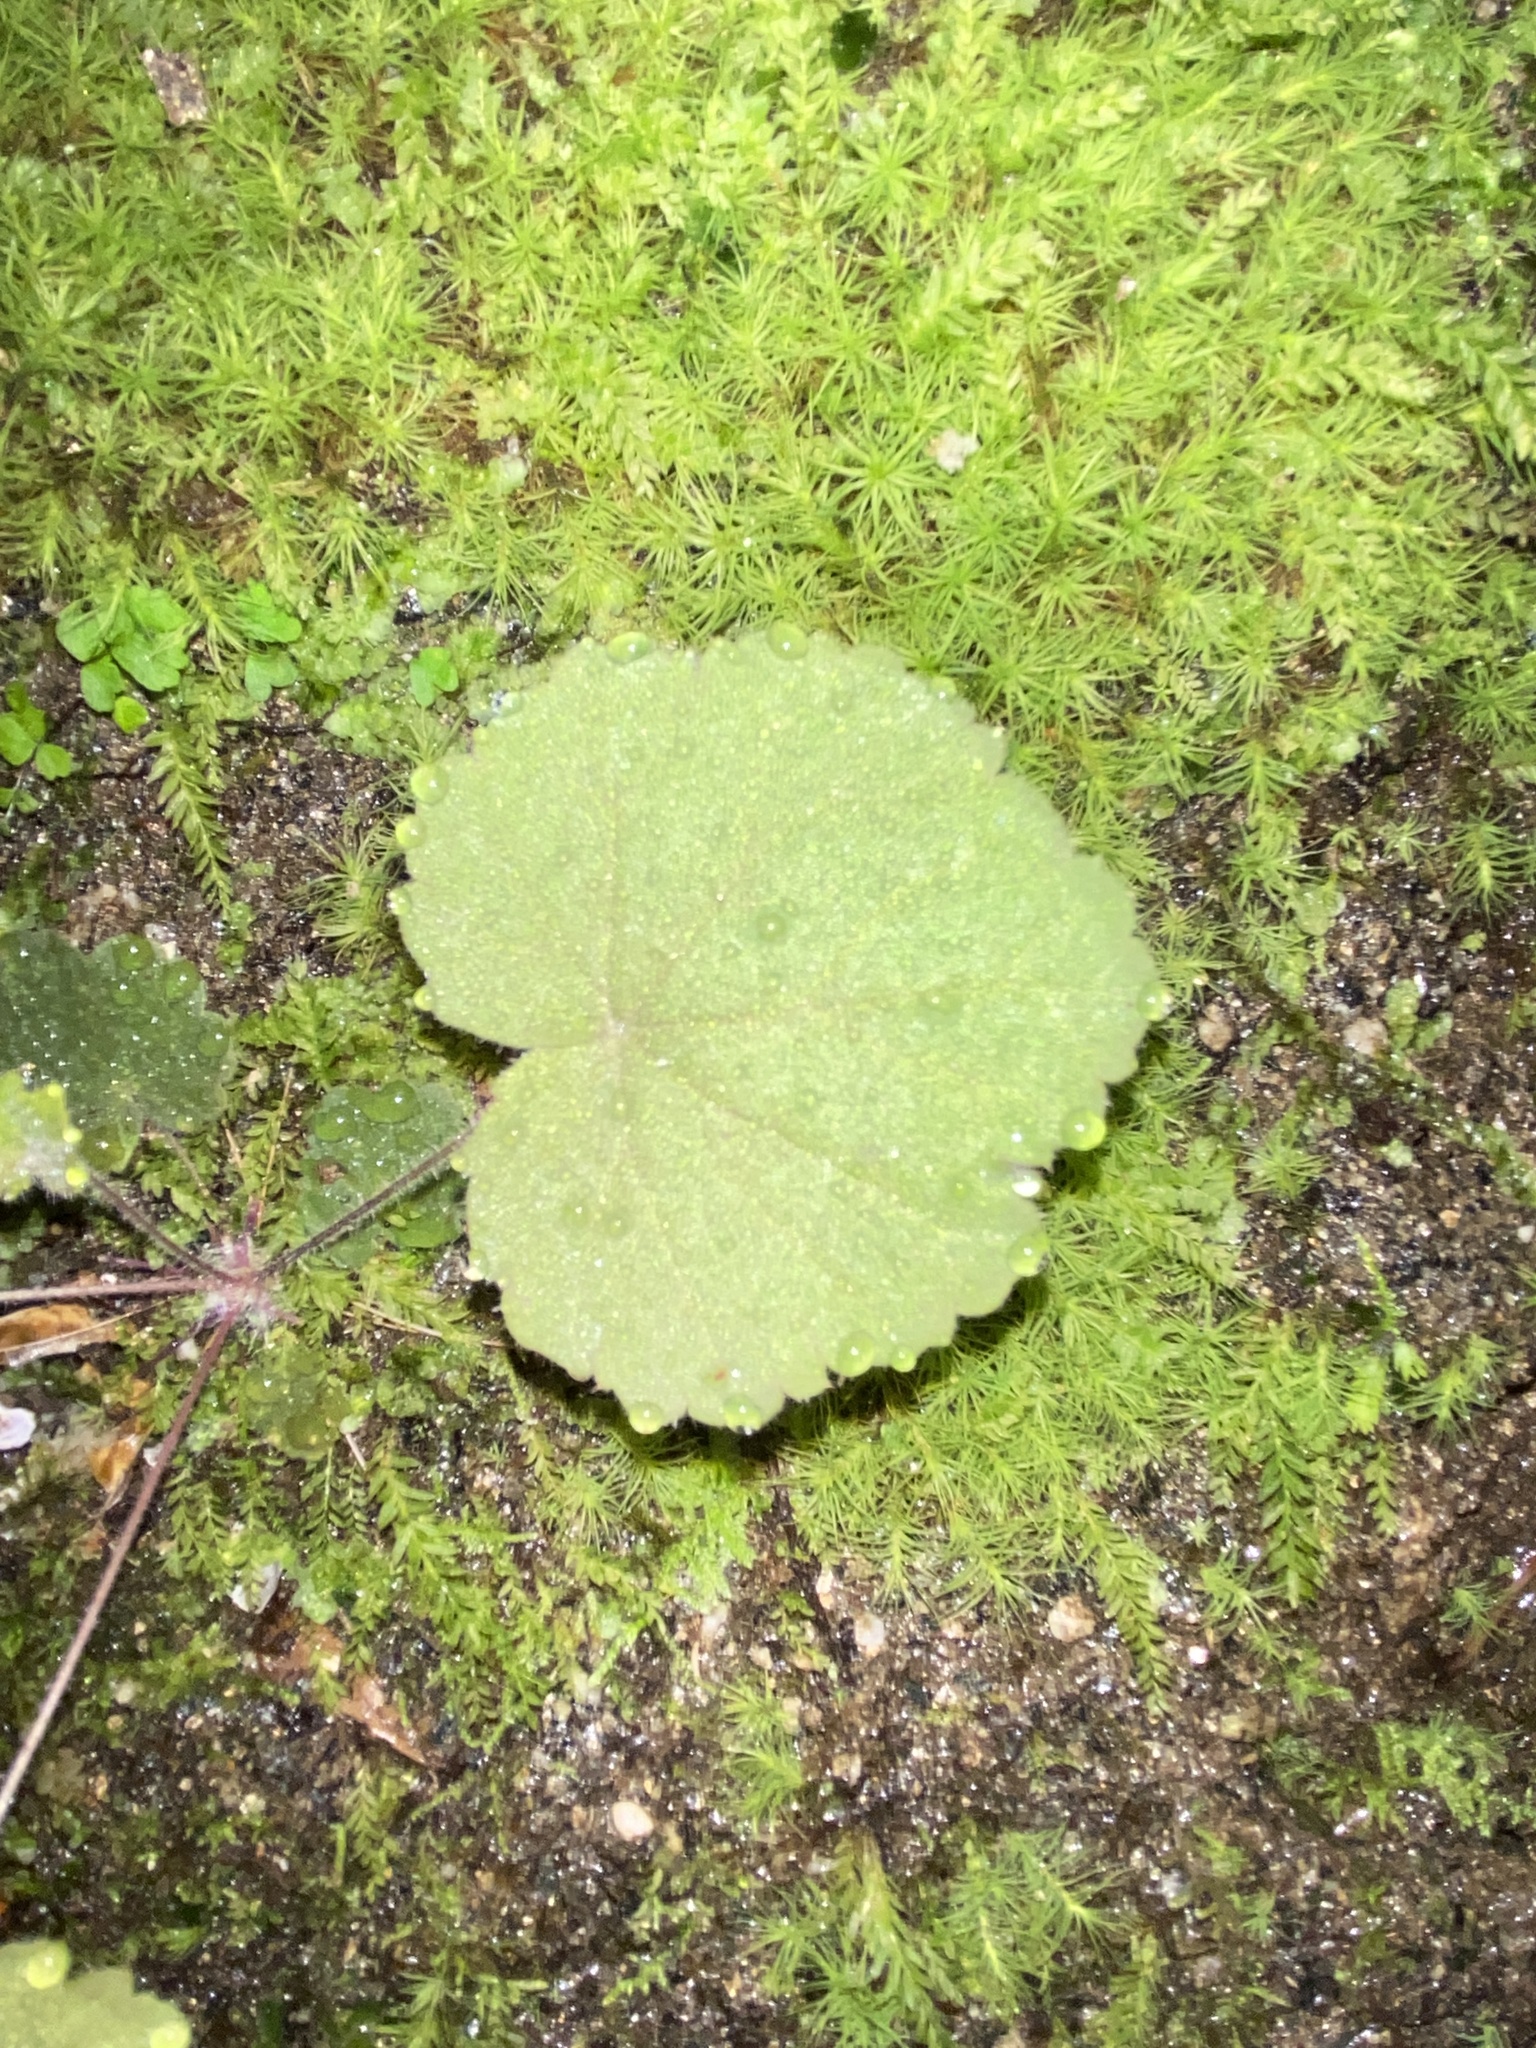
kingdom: Plantae
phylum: Tracheophyta
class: Magnoliopsida
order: Saxifragales
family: Saxifragaceae
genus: Heuchera
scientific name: Heuchera parviflora
